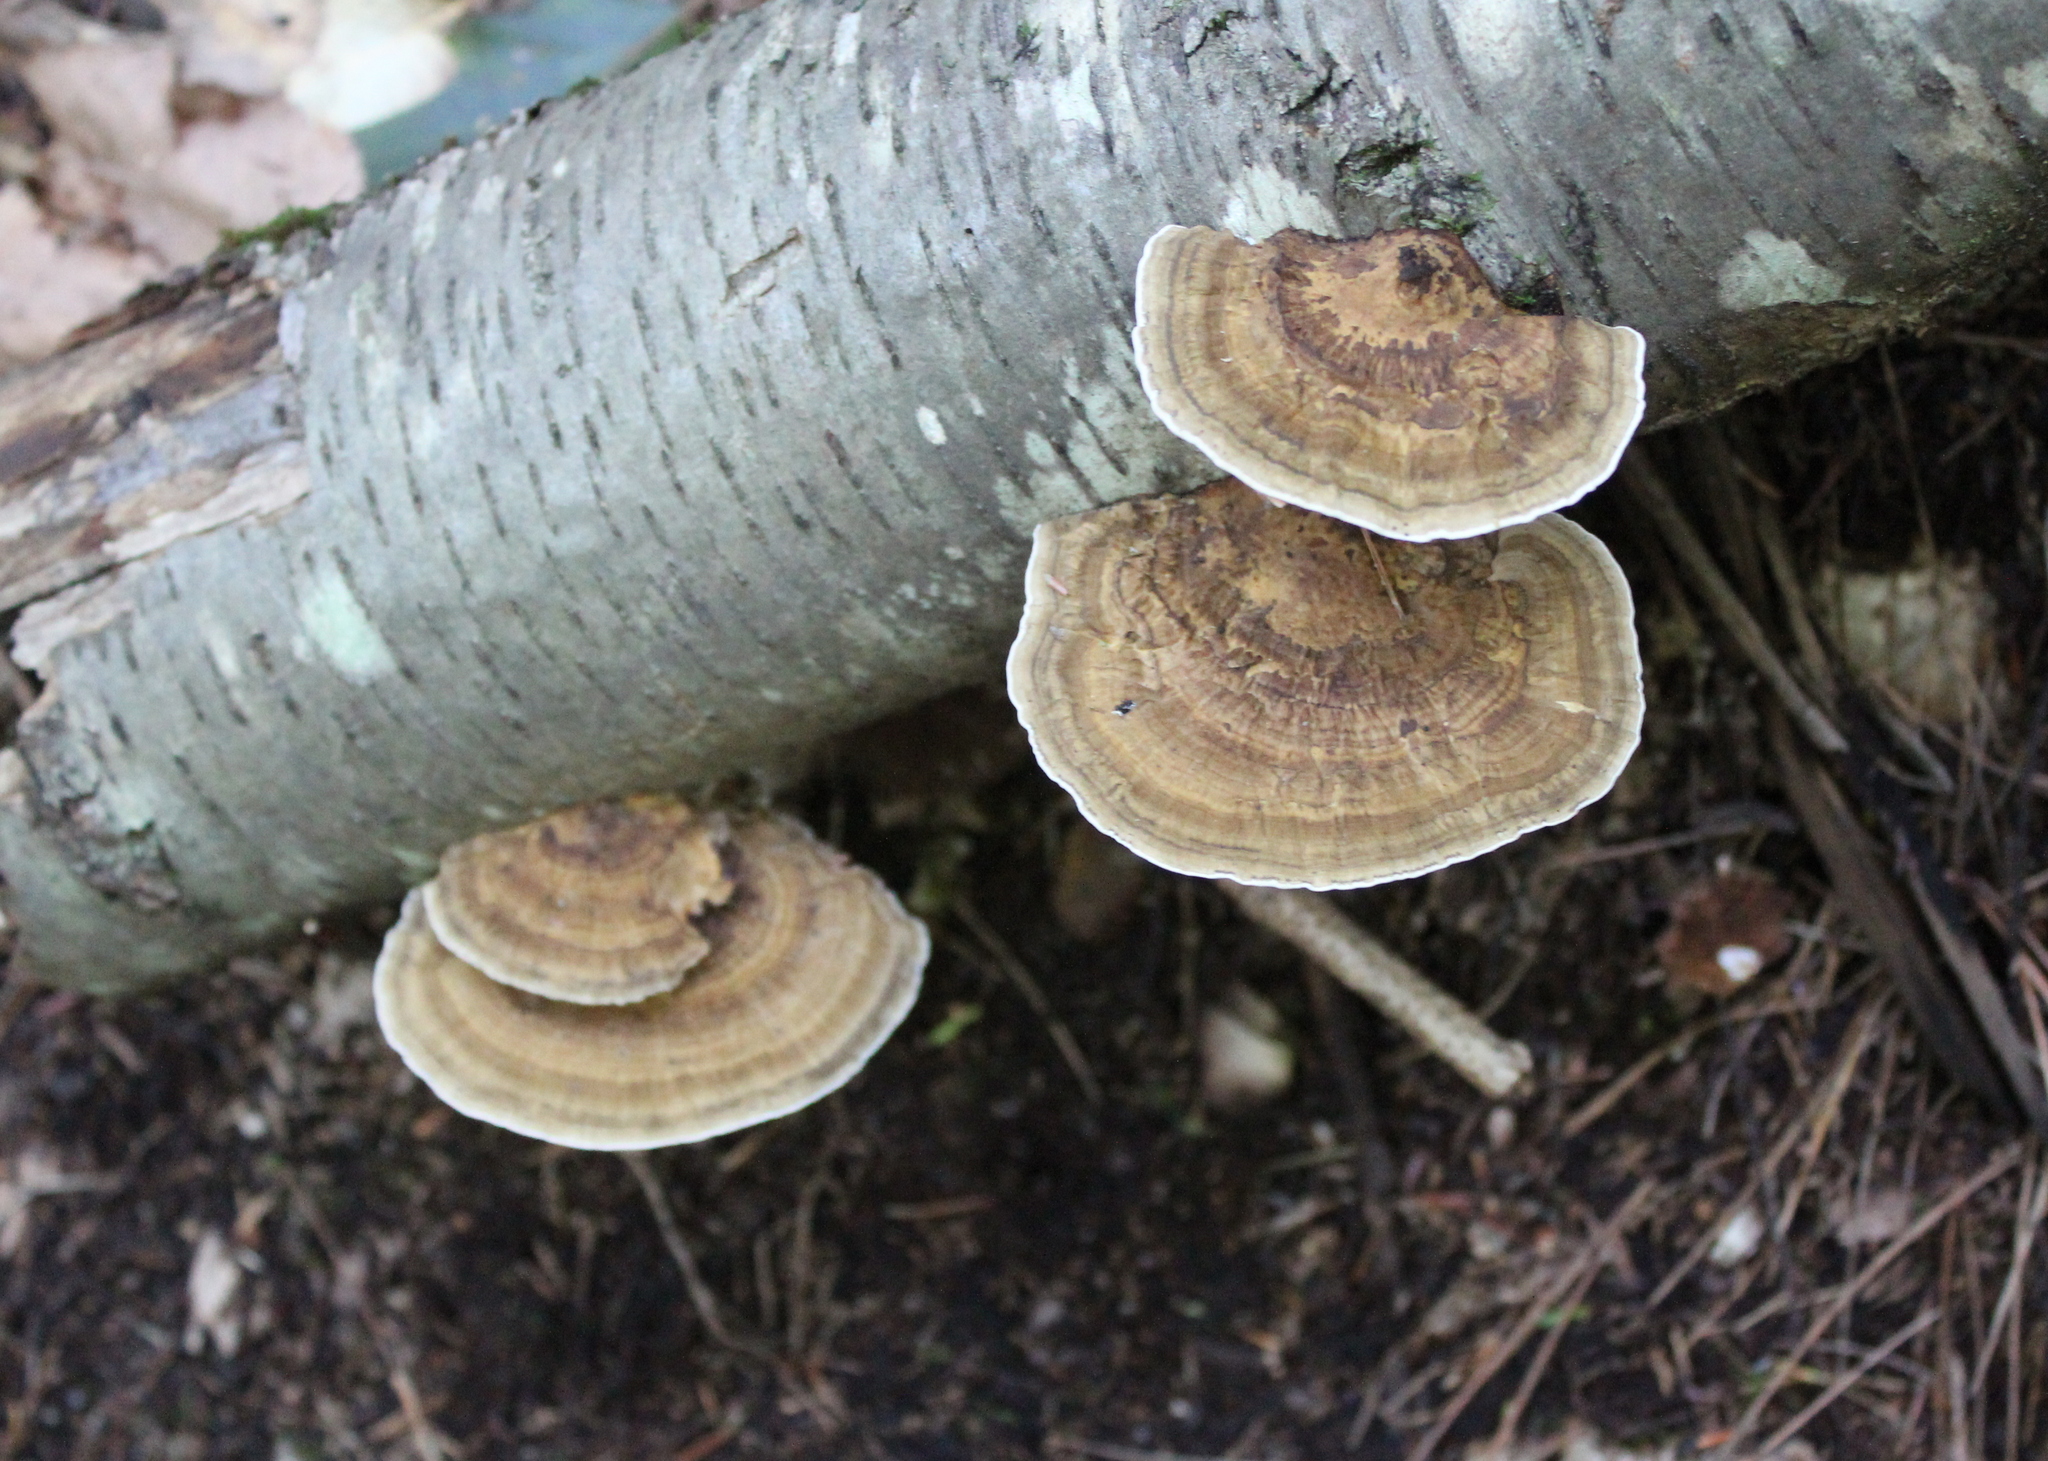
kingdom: Fungi
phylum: Basidiomycota
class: Agaricomycetes
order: Polyporales
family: Polyporaceae
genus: Daedaleopsis
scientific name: Daedaleopsis confragosa
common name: Blushing bracket
